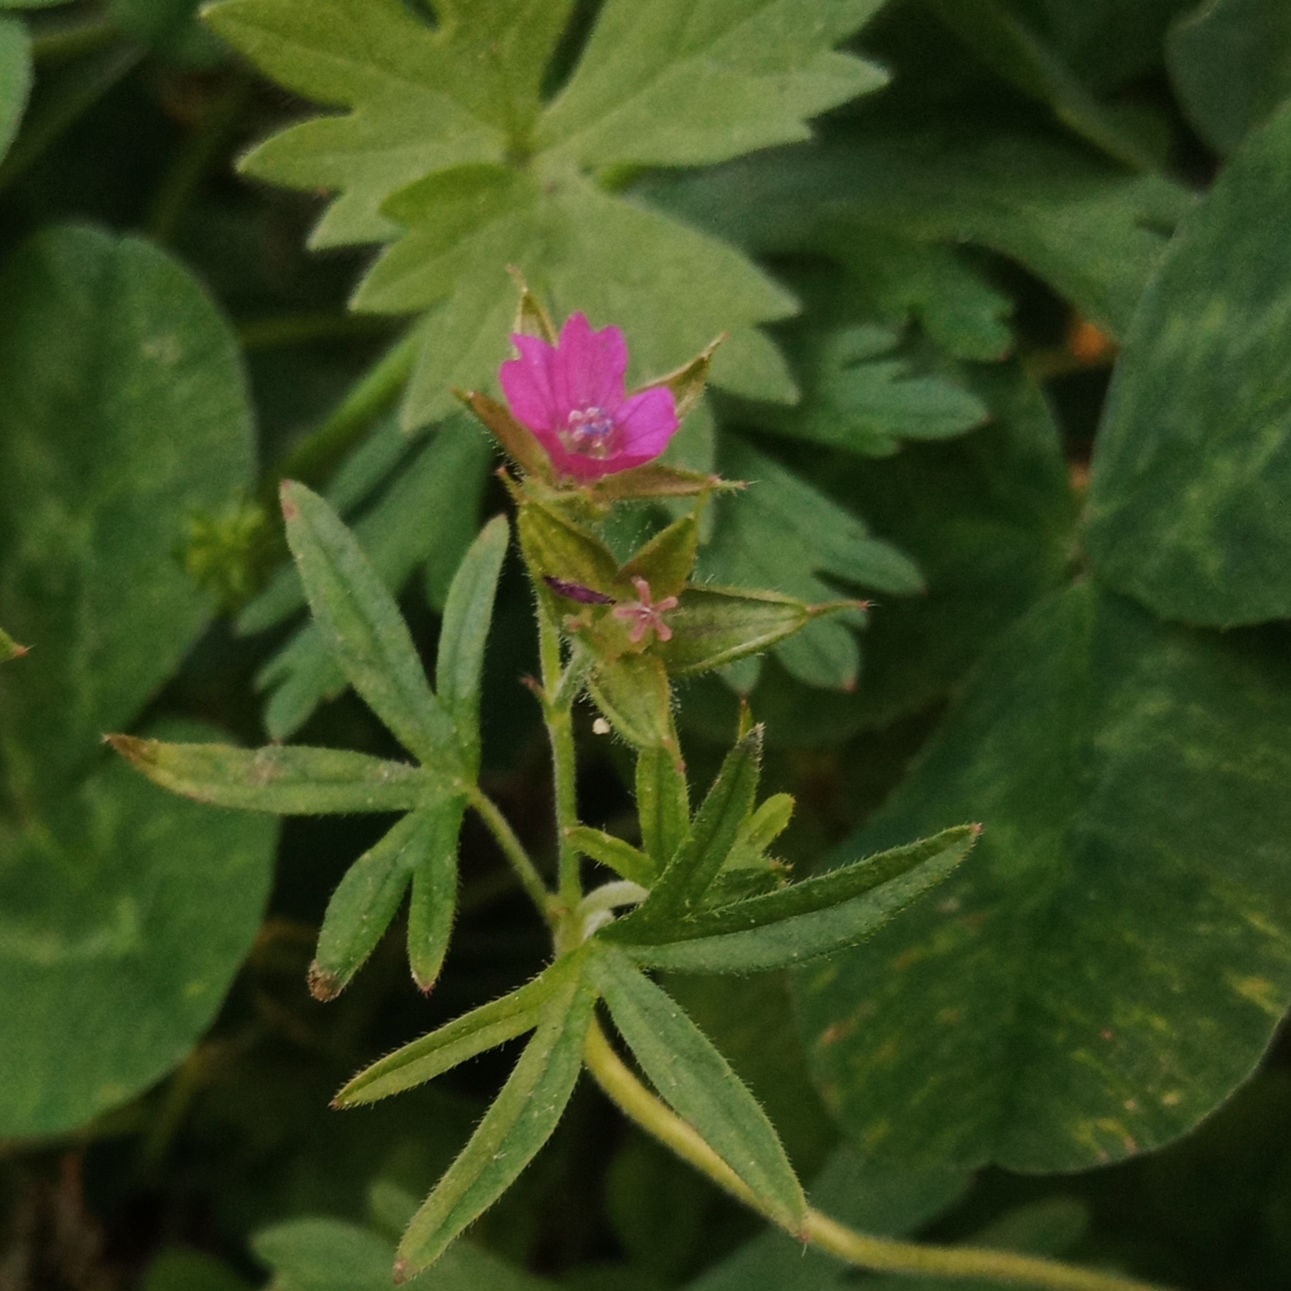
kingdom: Plantae
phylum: Tracheophyta
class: Magnoliopsida
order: Geraniales
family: Geraniaceae
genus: Geranium
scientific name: Geranium dissectum
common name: Cut-leaved crane's-bill
